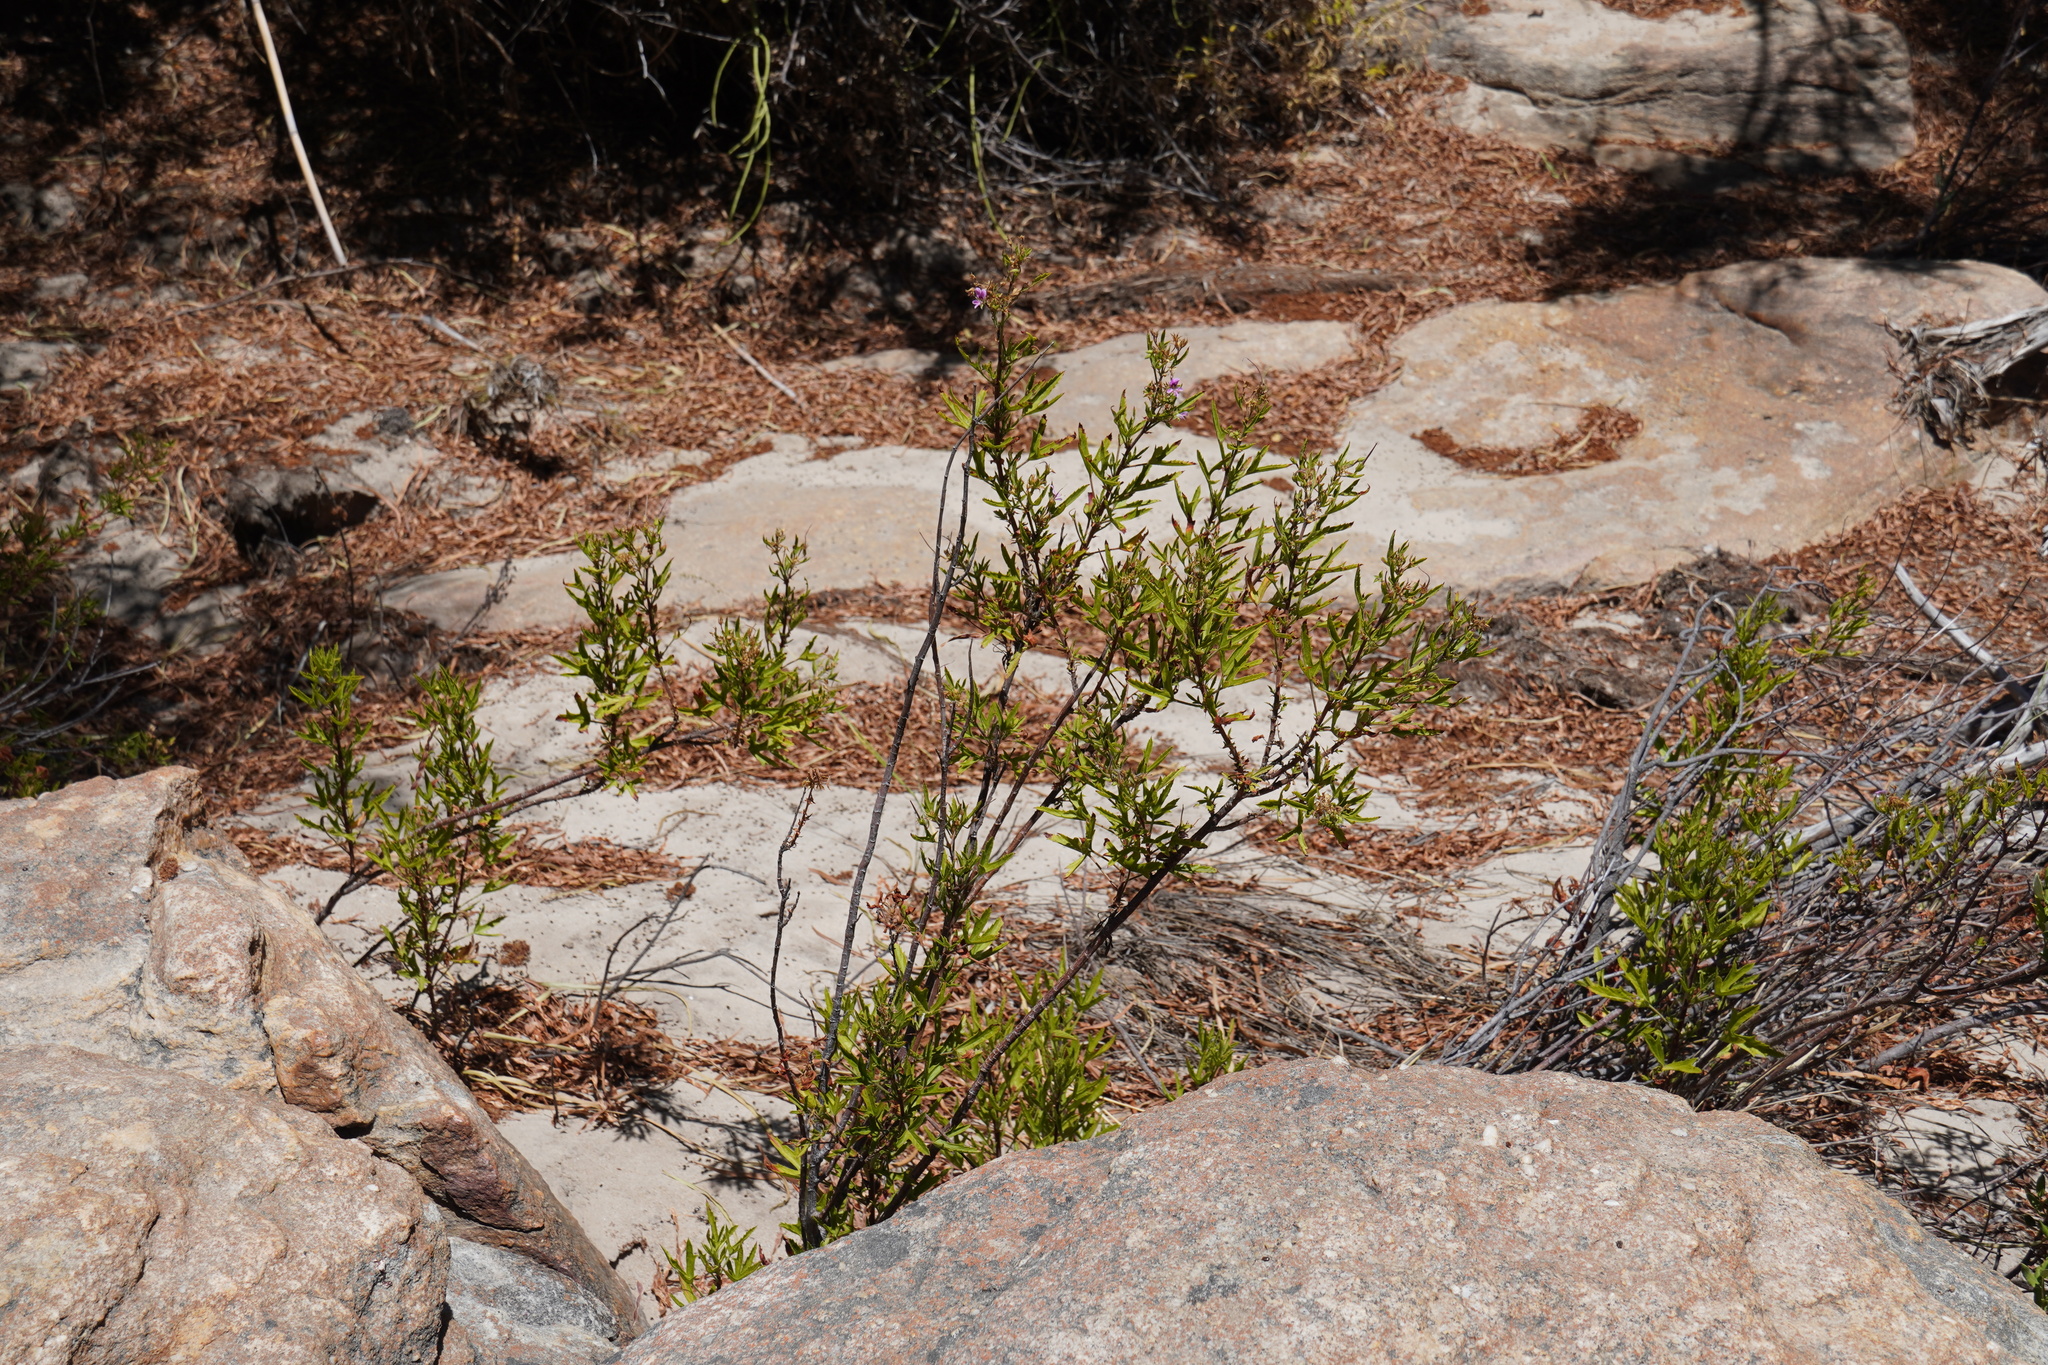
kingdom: Plantae
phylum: Tracheophyta
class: Magnoliopsida
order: Geraniales
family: Geraniaceae
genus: Pelargonium
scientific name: Pelargonium scabrum
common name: Apricot geranium
